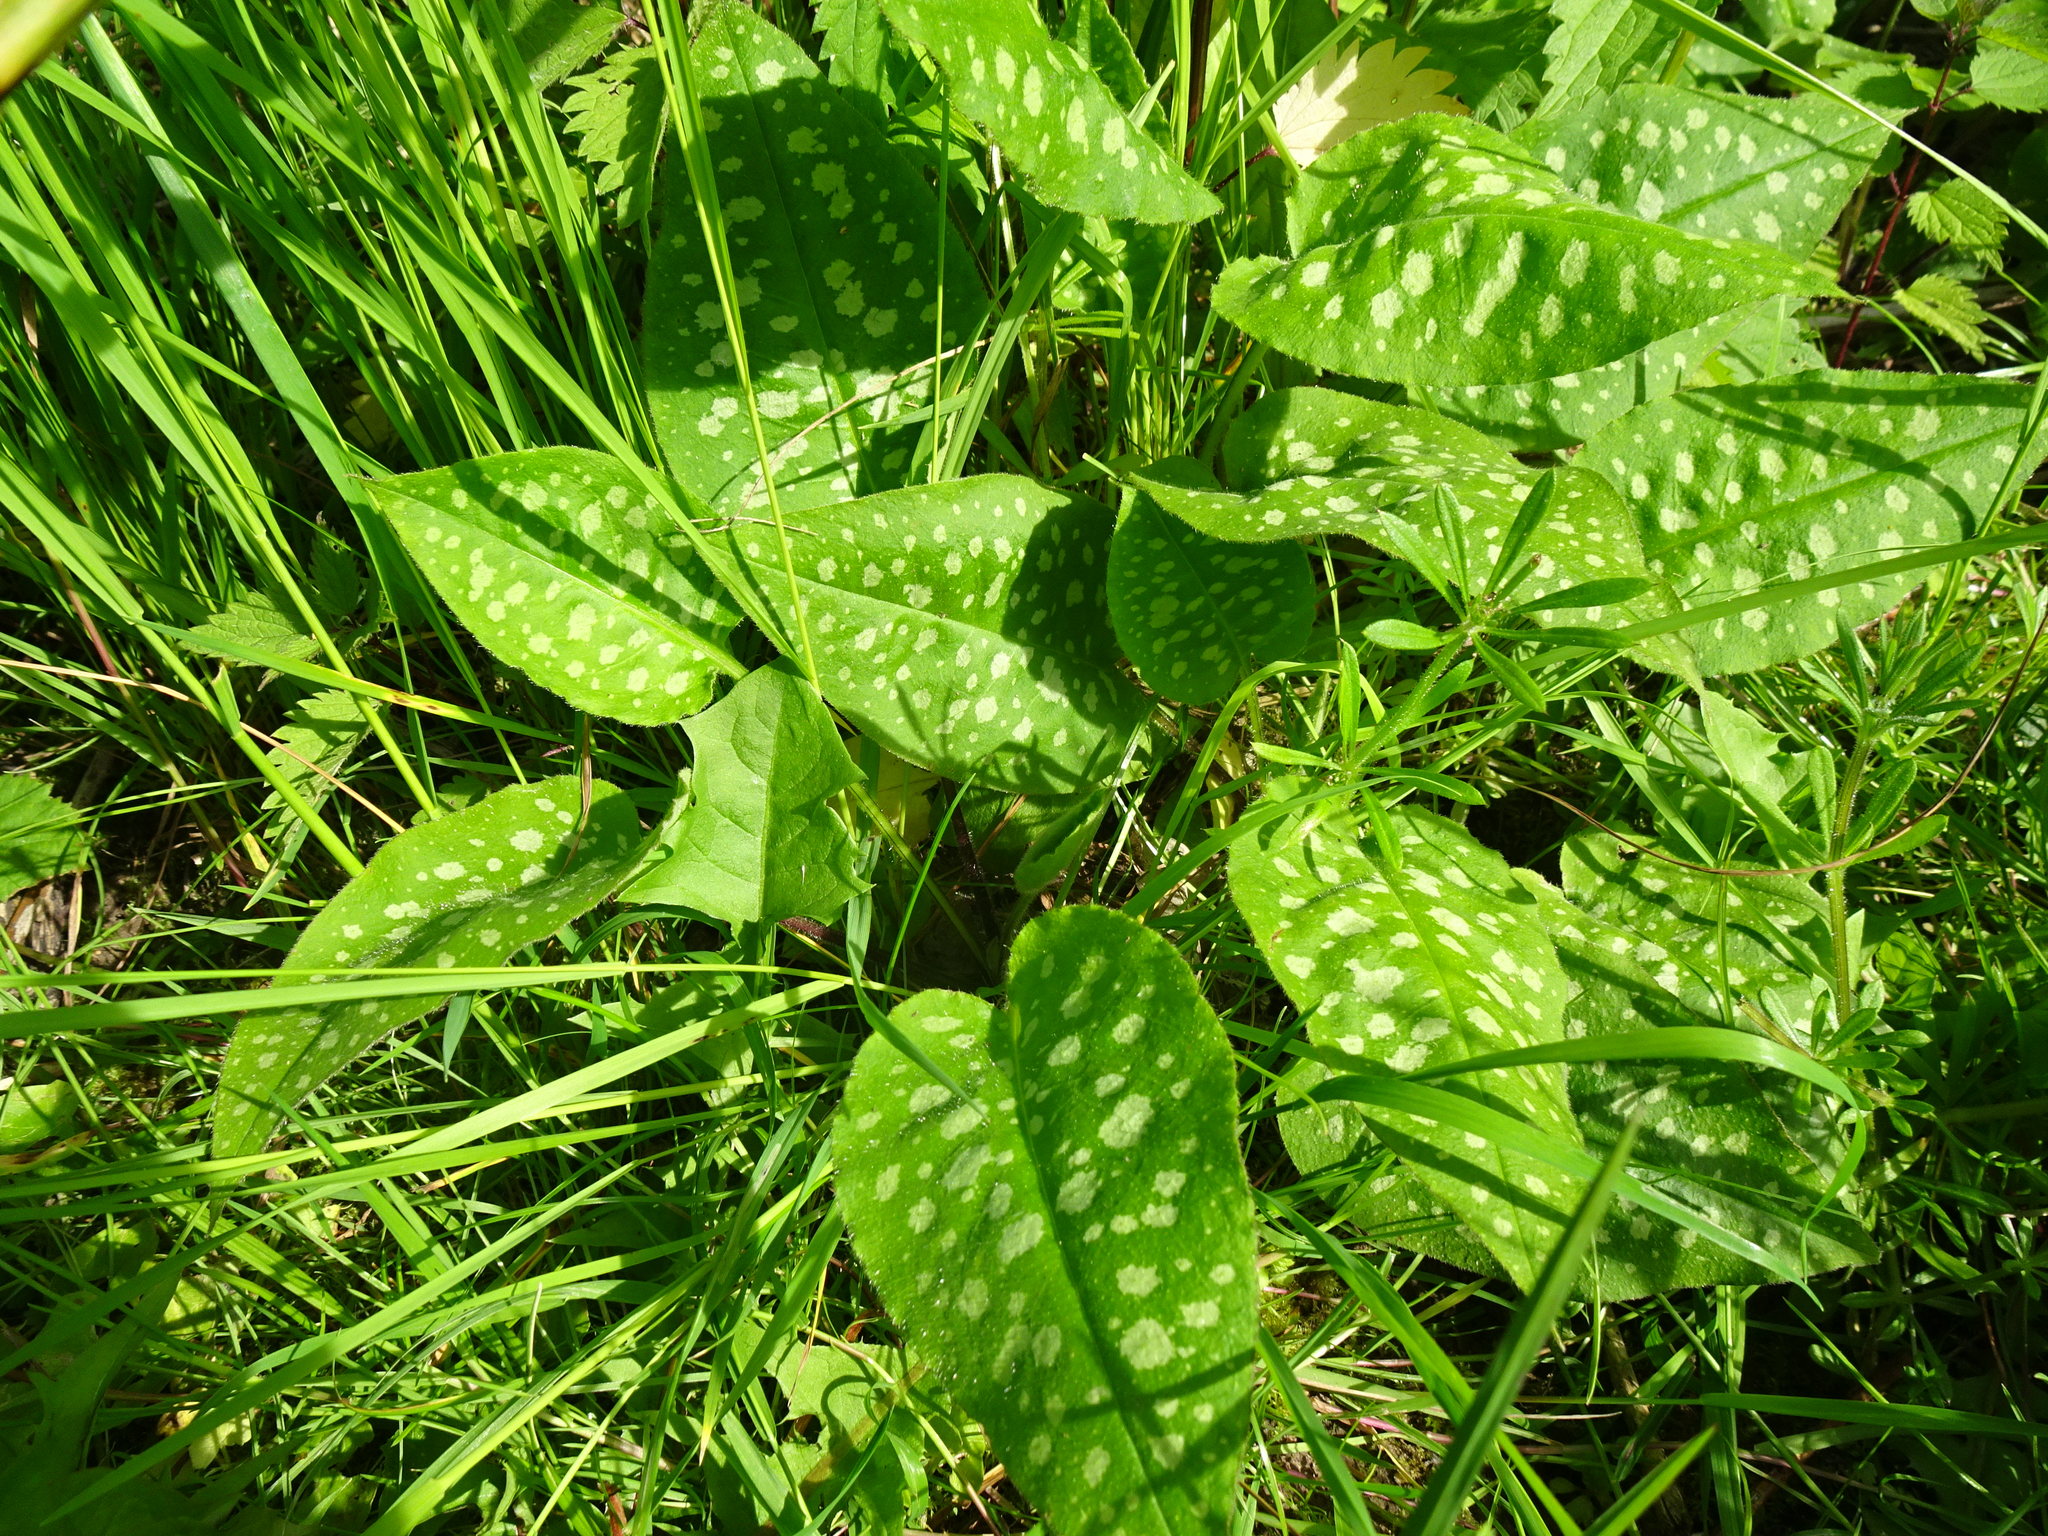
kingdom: Plantae
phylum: Tracheophyta
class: Magnoliopsida
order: Boraginales
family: Boraginaceae
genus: Pulmonaria
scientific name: Pulmonaria officinalis
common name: Lungwort
